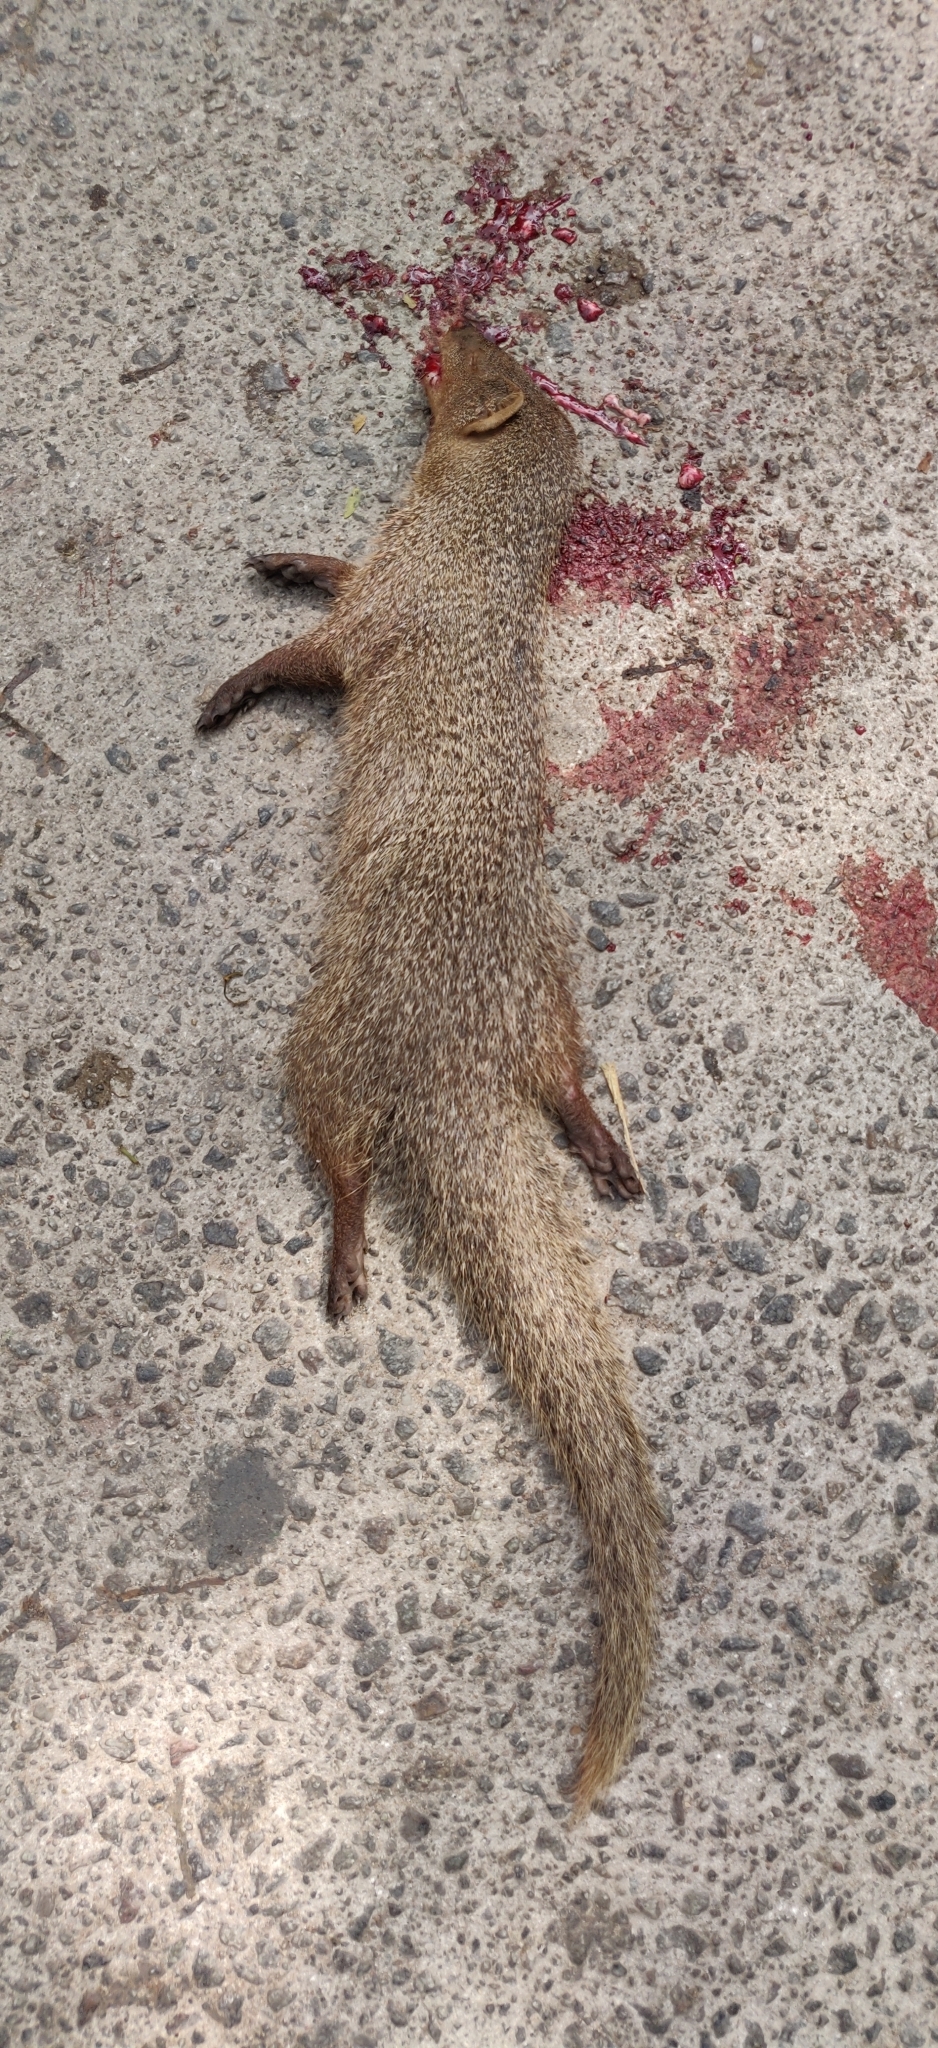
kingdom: Animalia
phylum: Chordata
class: Mammalia
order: Carnivora
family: Herpestidae
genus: Herpestes
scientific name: Herpestes edwardsi
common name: Indian gray mongoose
